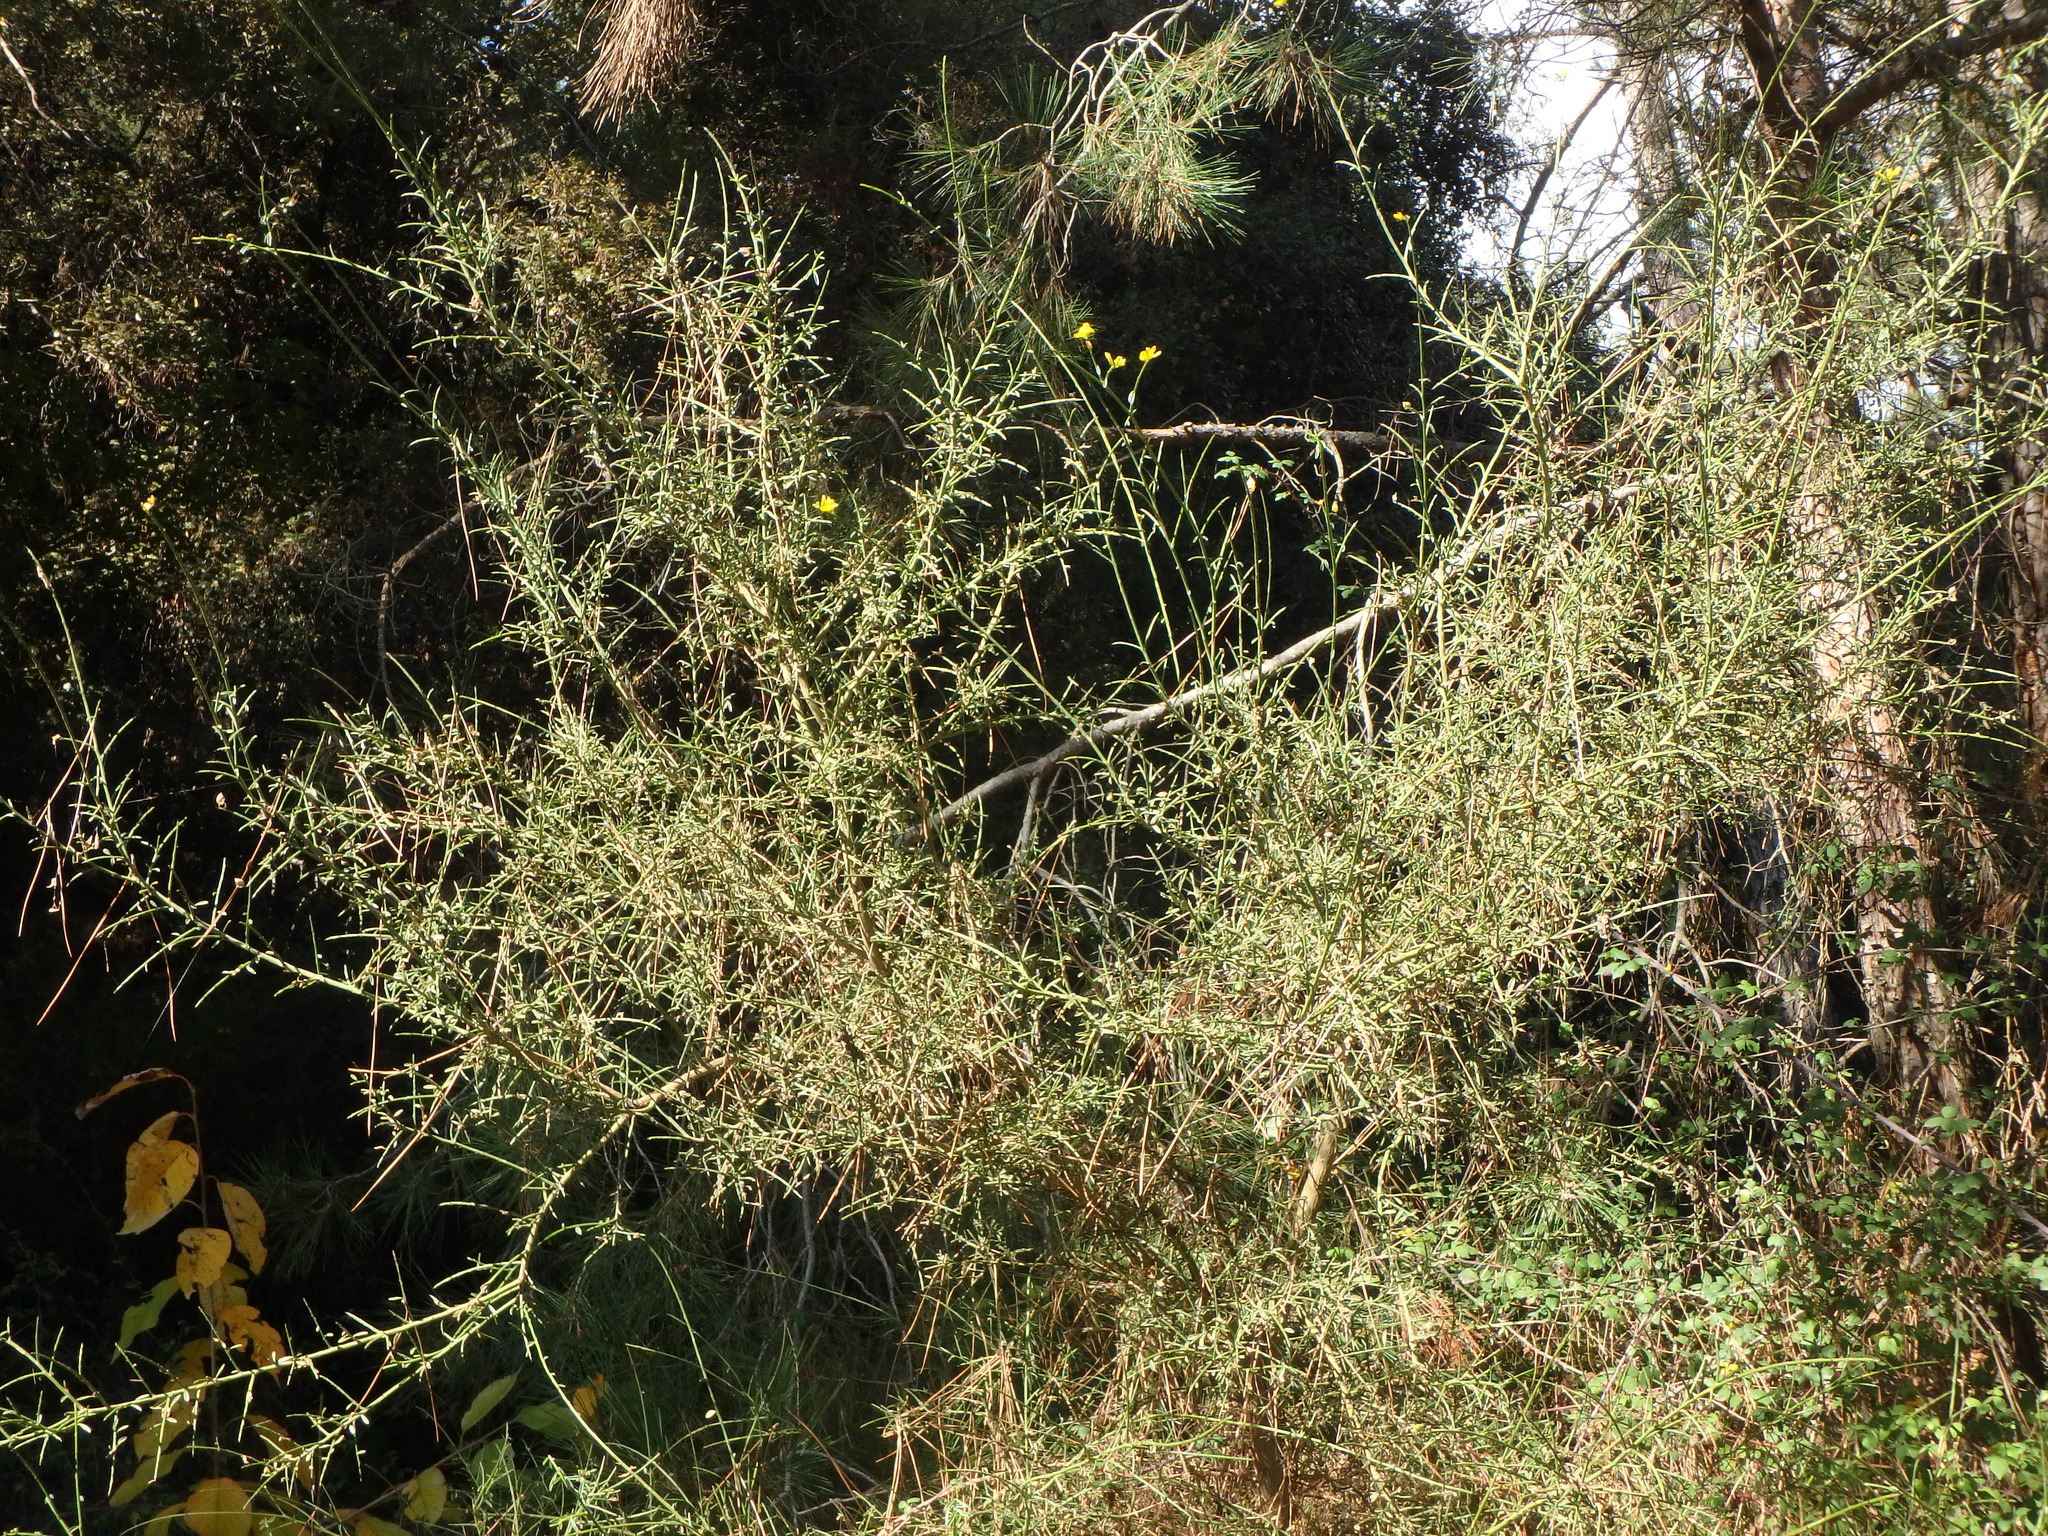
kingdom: Plantae
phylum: Tracheophyta
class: Magnoliopsida
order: Fabales
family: Fabaceae
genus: Genista
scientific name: Genista fasselata
